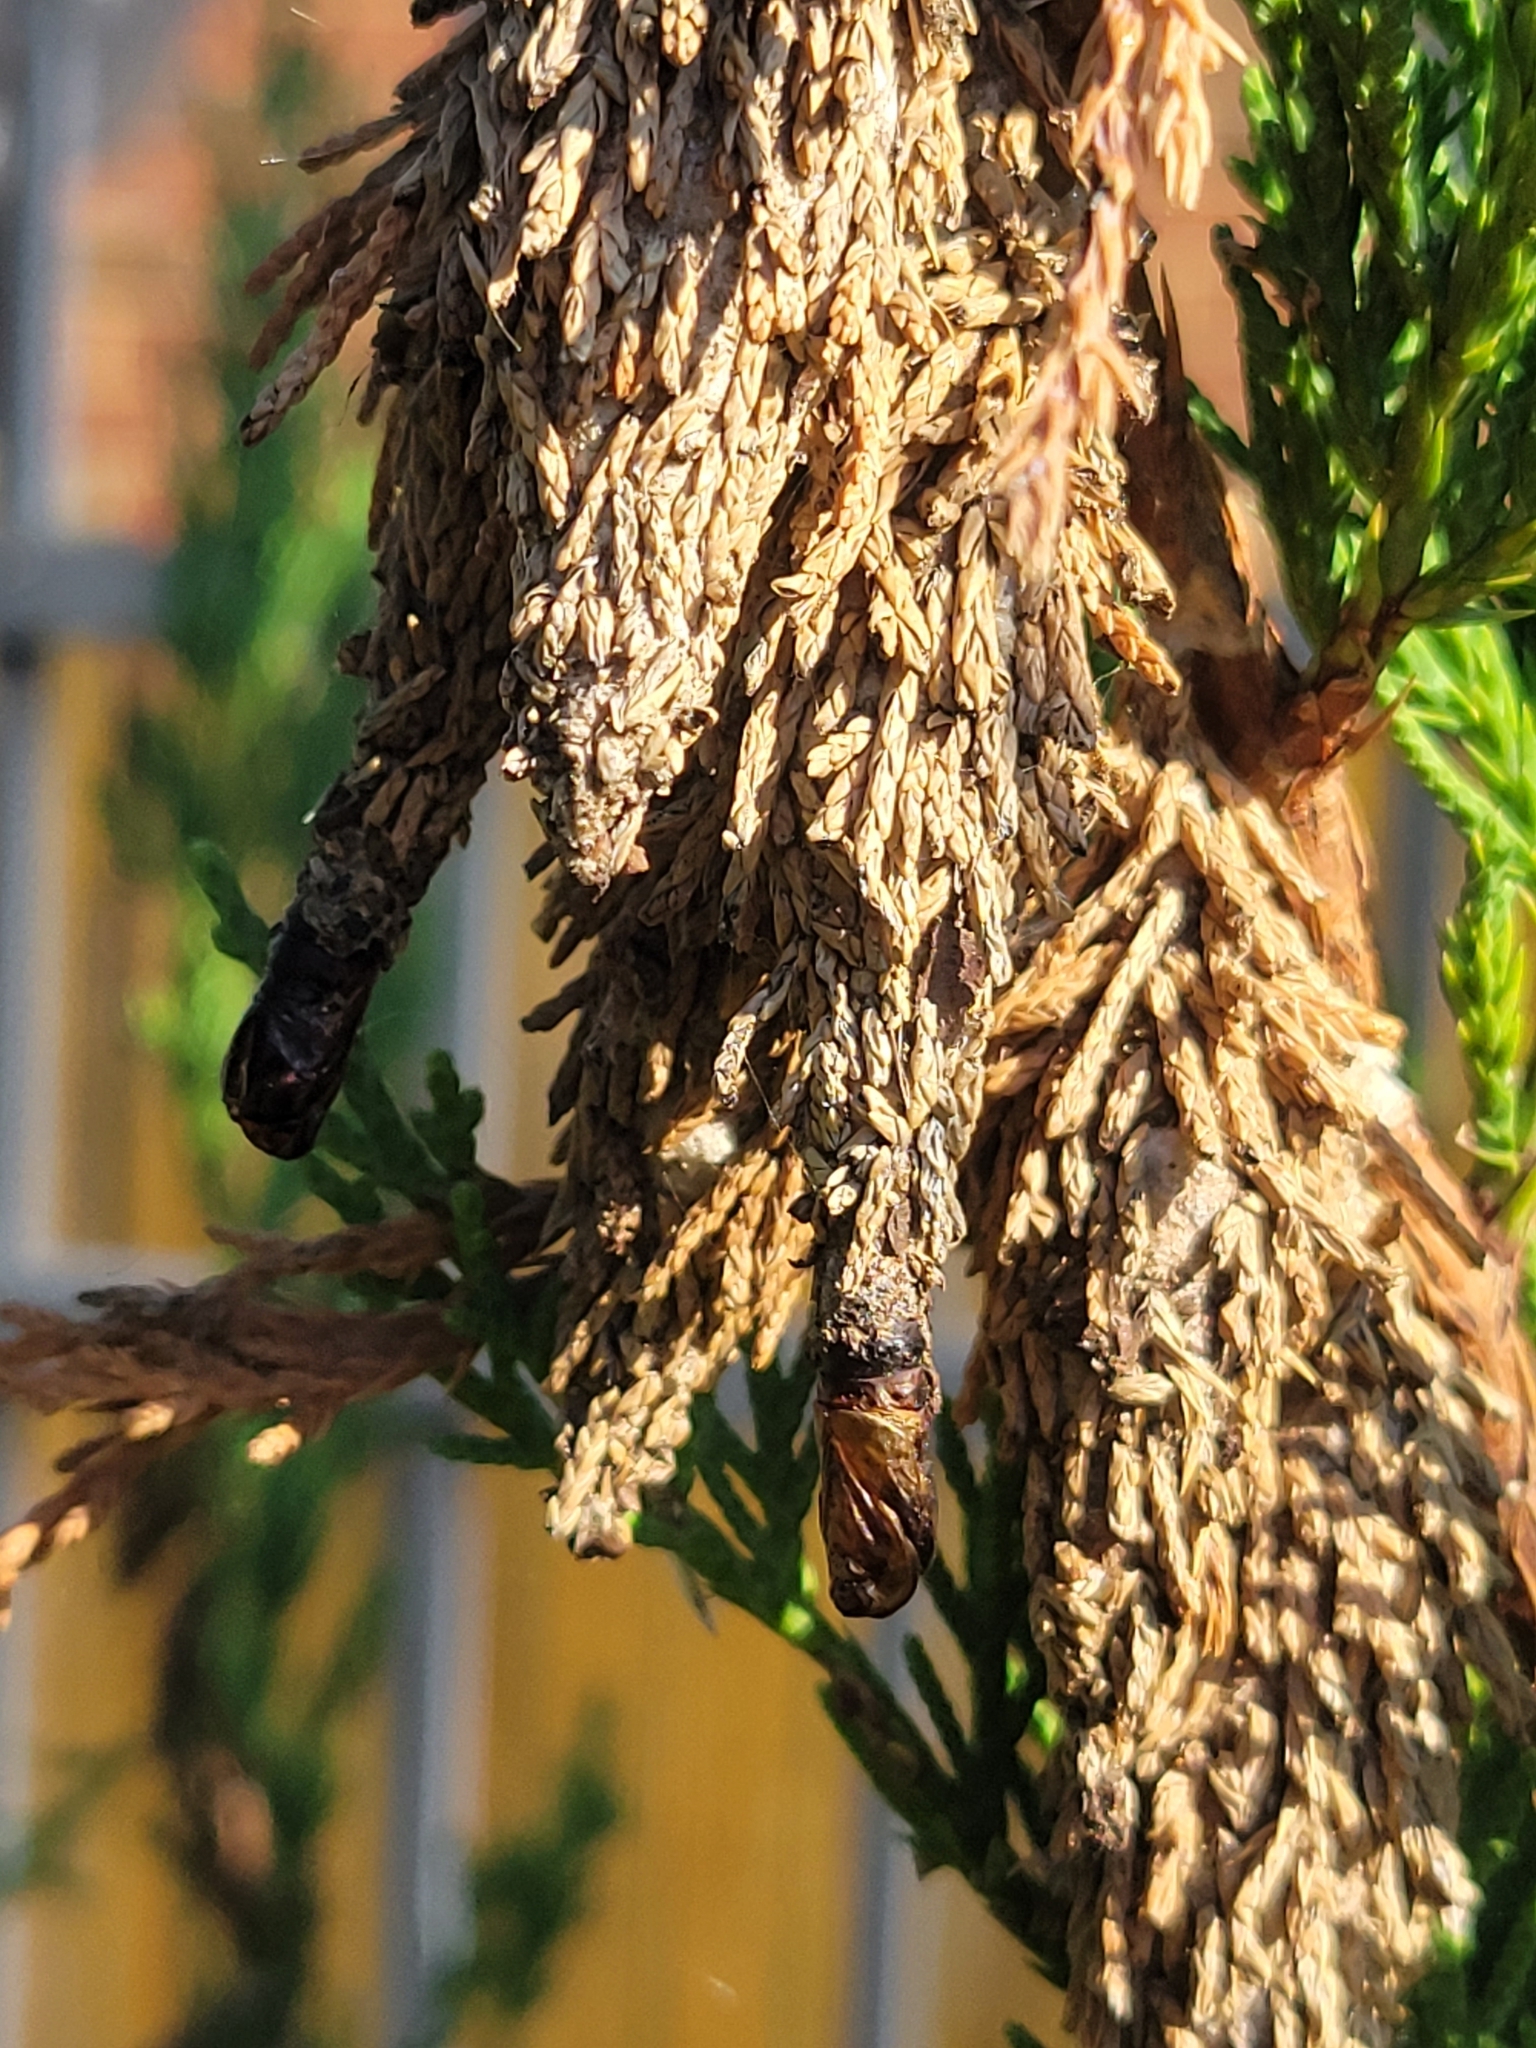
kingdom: Animalia
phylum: Arthropoda
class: Insecta
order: Lepidoptera
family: Psychidae
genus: Thyridopteryx
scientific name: Thyridopteryx ephemeraeformis
